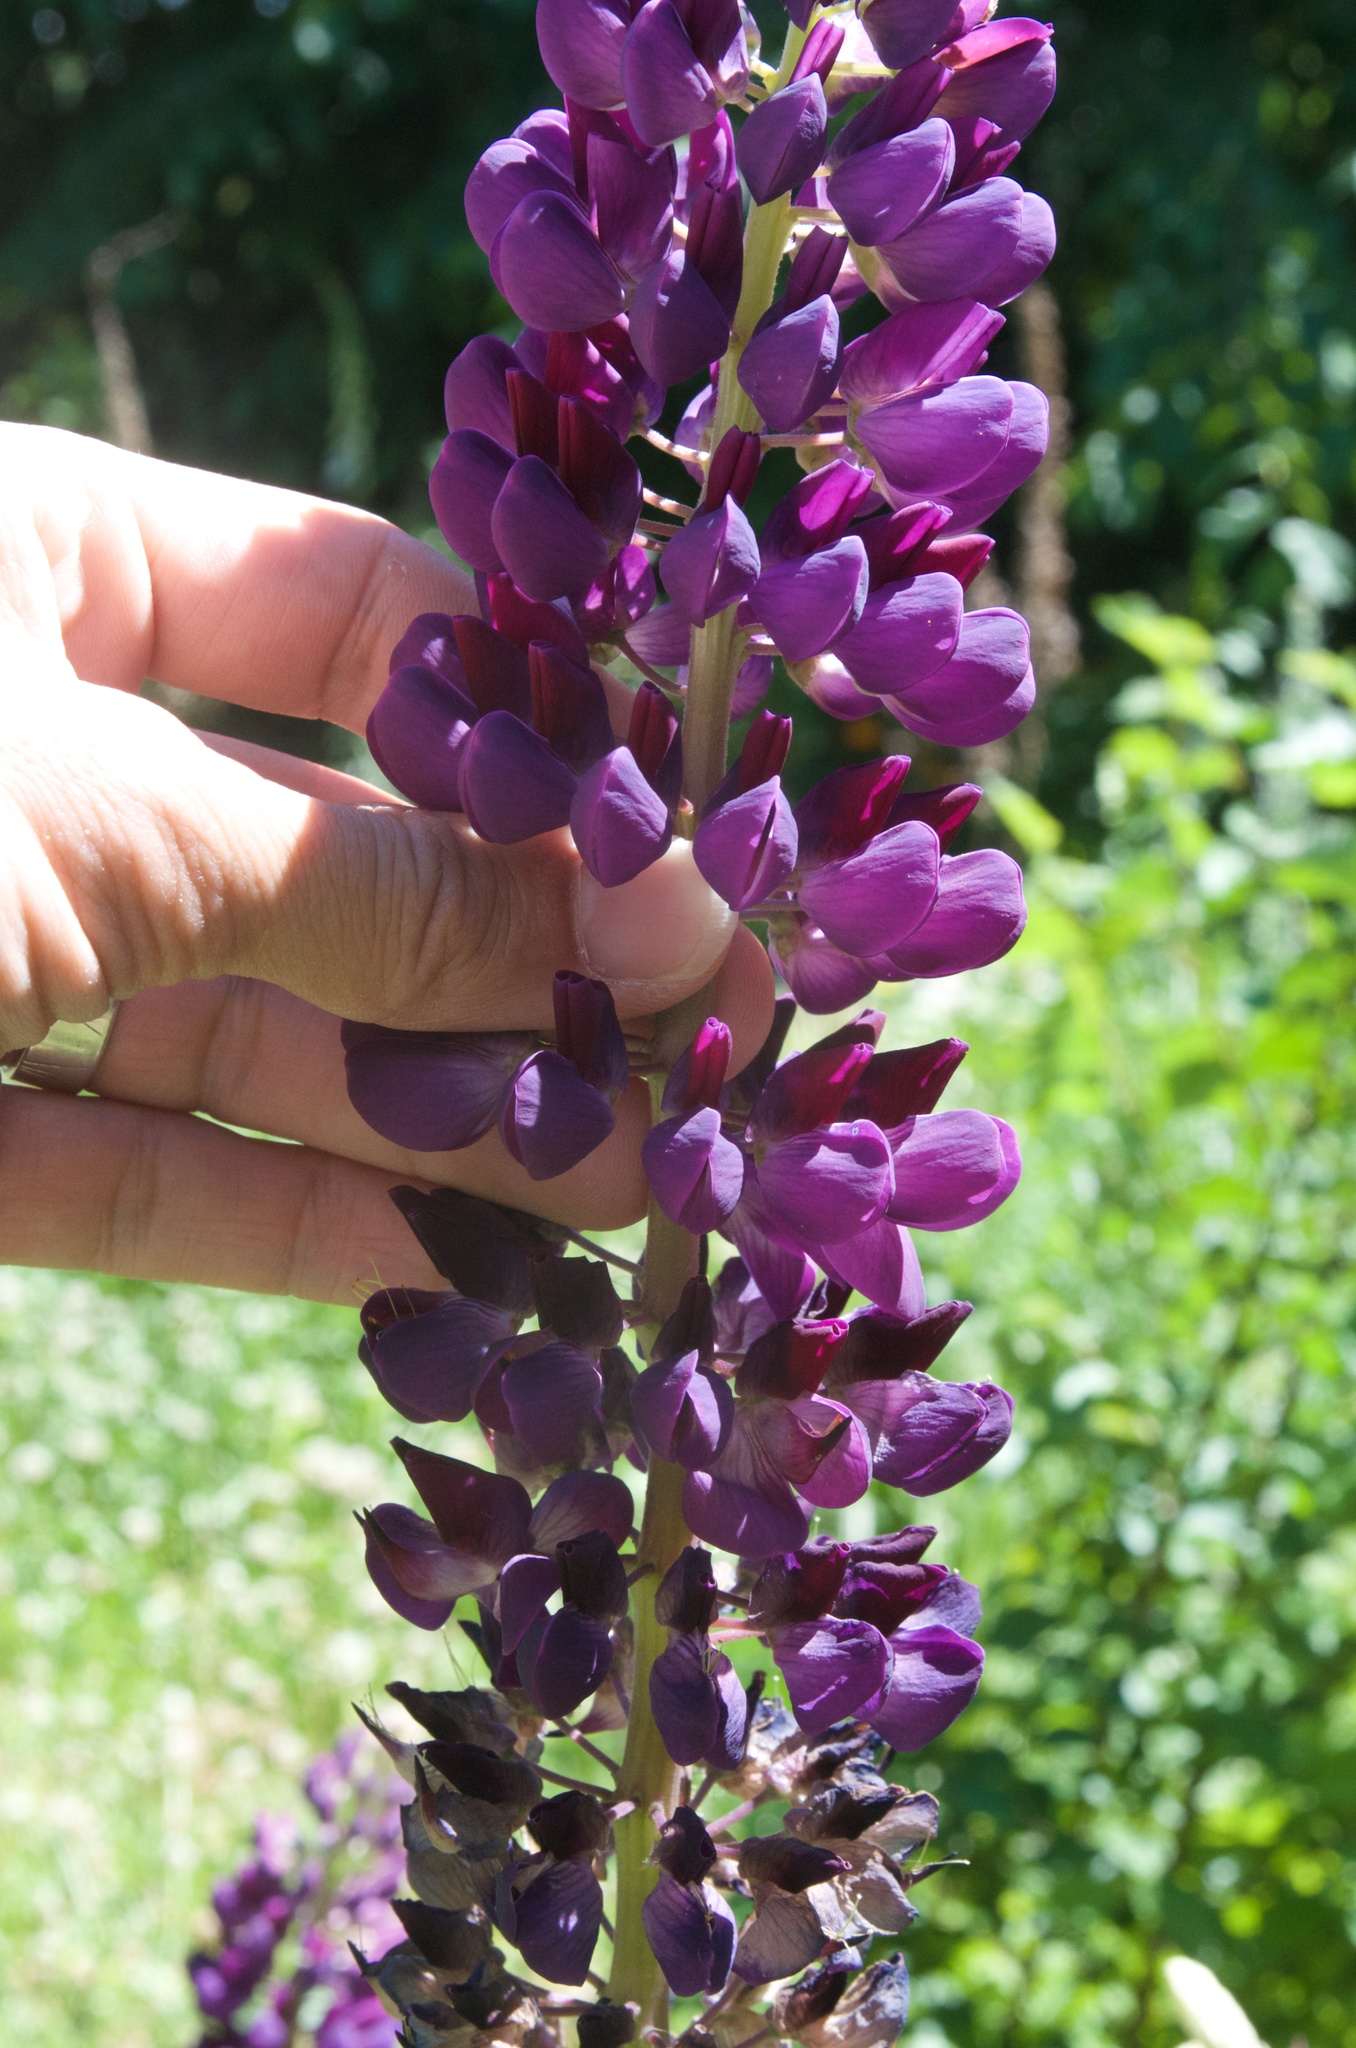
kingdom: Plantae
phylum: Tracheophyta
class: Magnoliopsida
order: Fabales
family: Fabaceae
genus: Lupinus
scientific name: Lupinus polyphyllus
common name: Garden lupin
